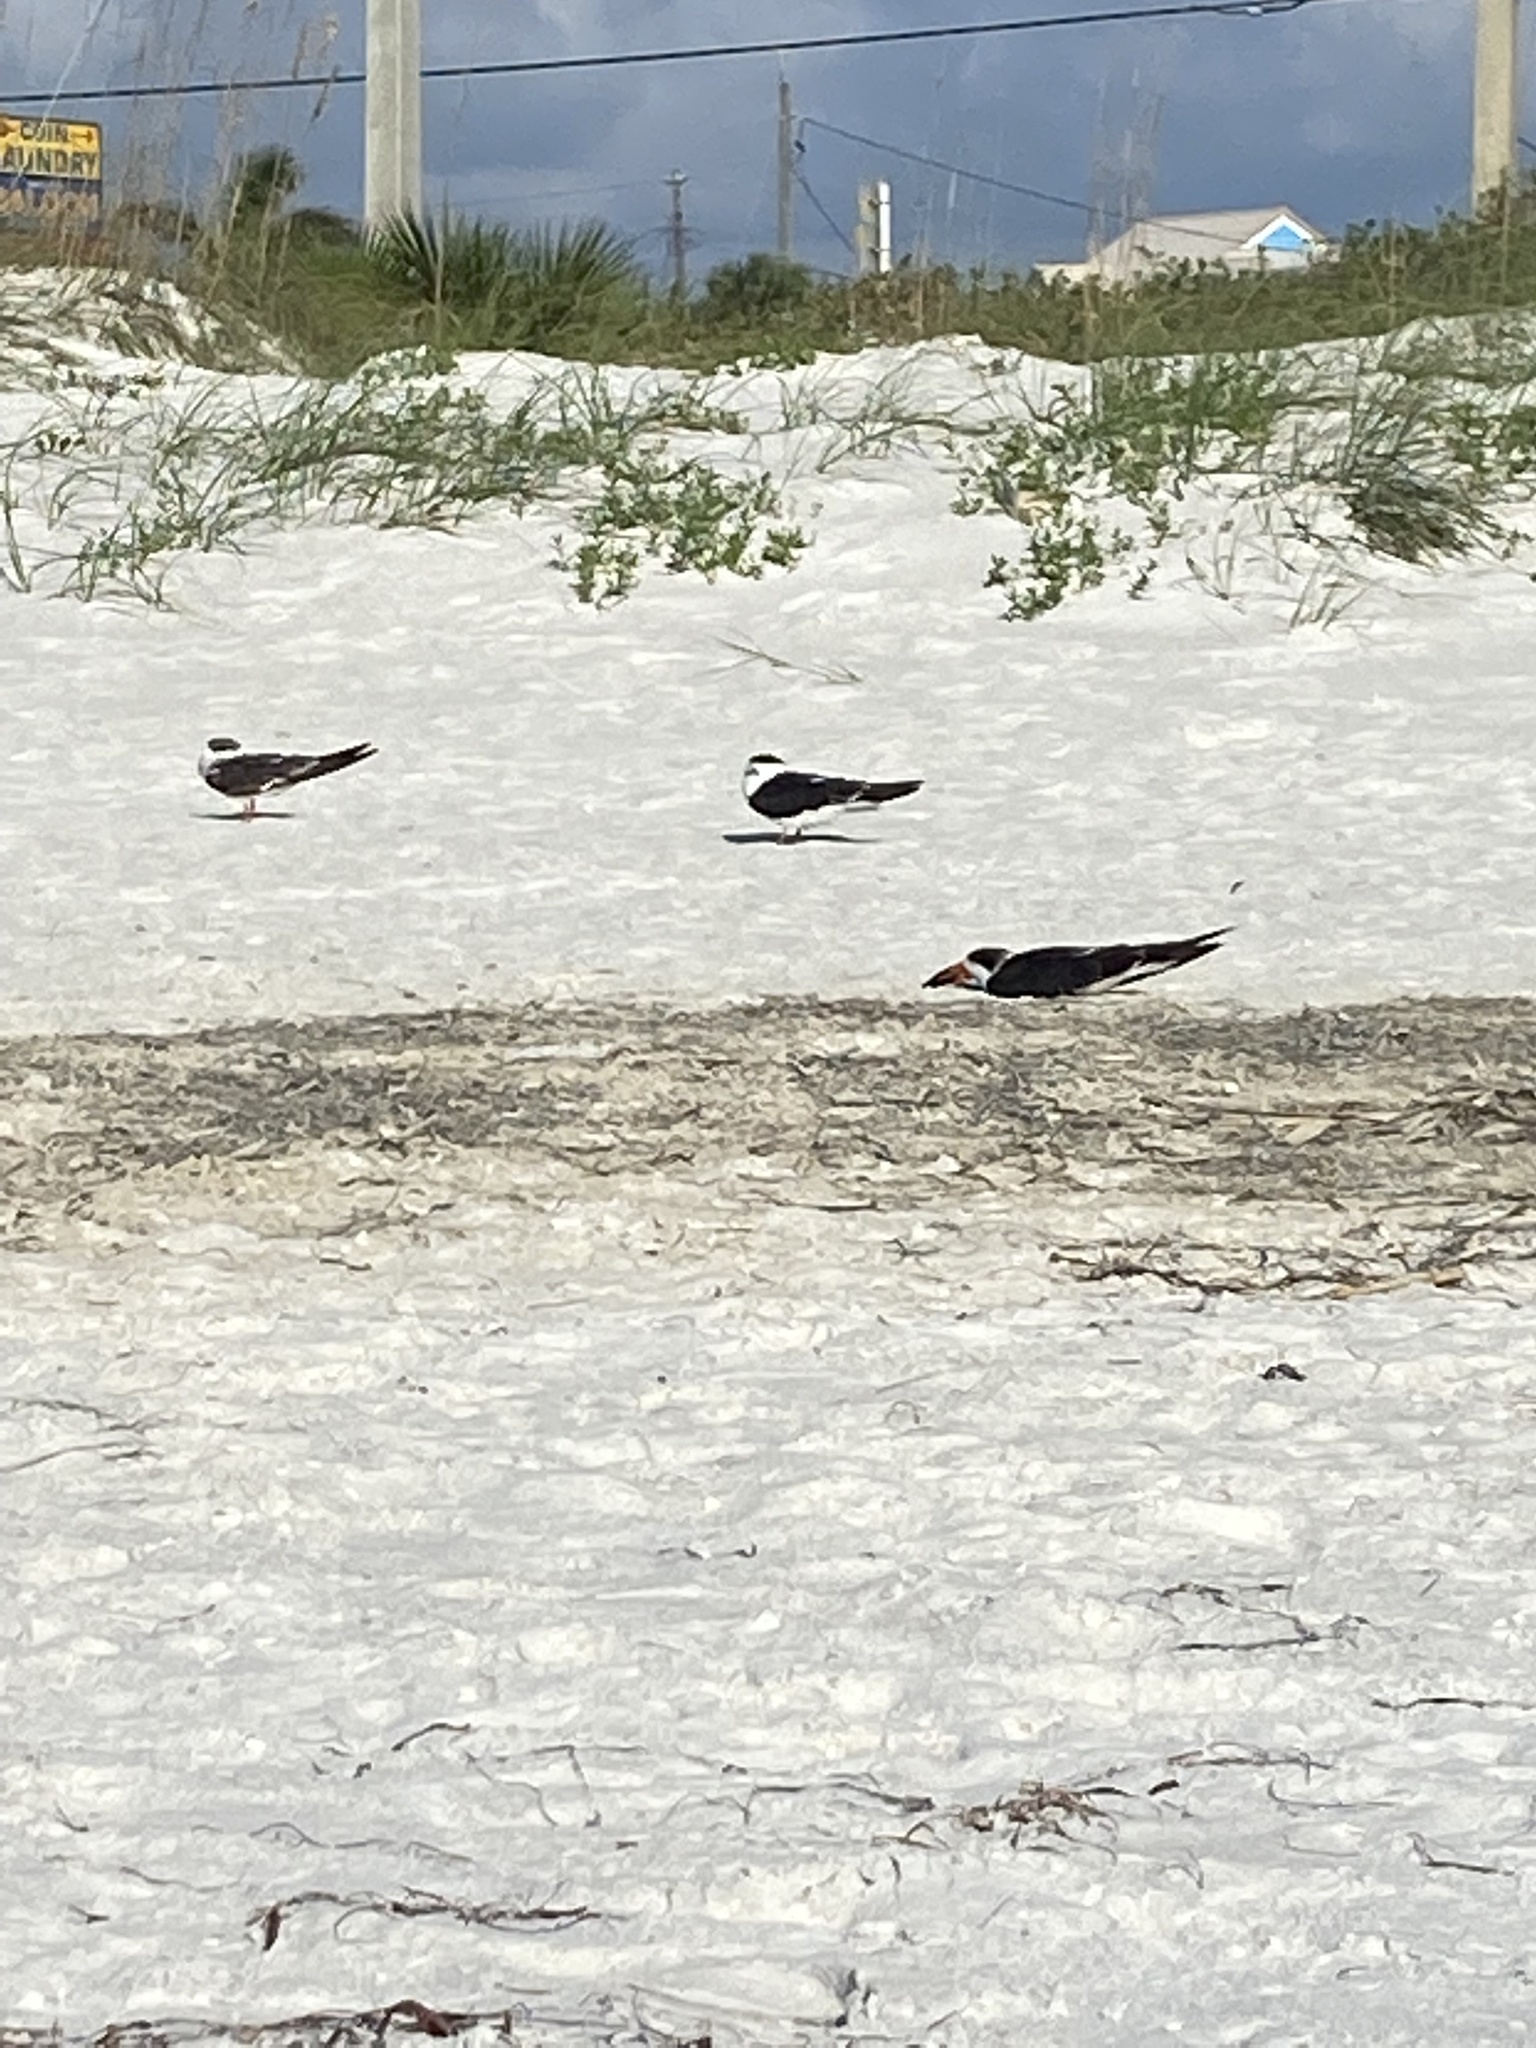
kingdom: Animalia
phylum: Chordata
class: Aves
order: Charadriiformes
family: Laridae
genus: Rynchops
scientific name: Rynchops niger
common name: Black skimmer
